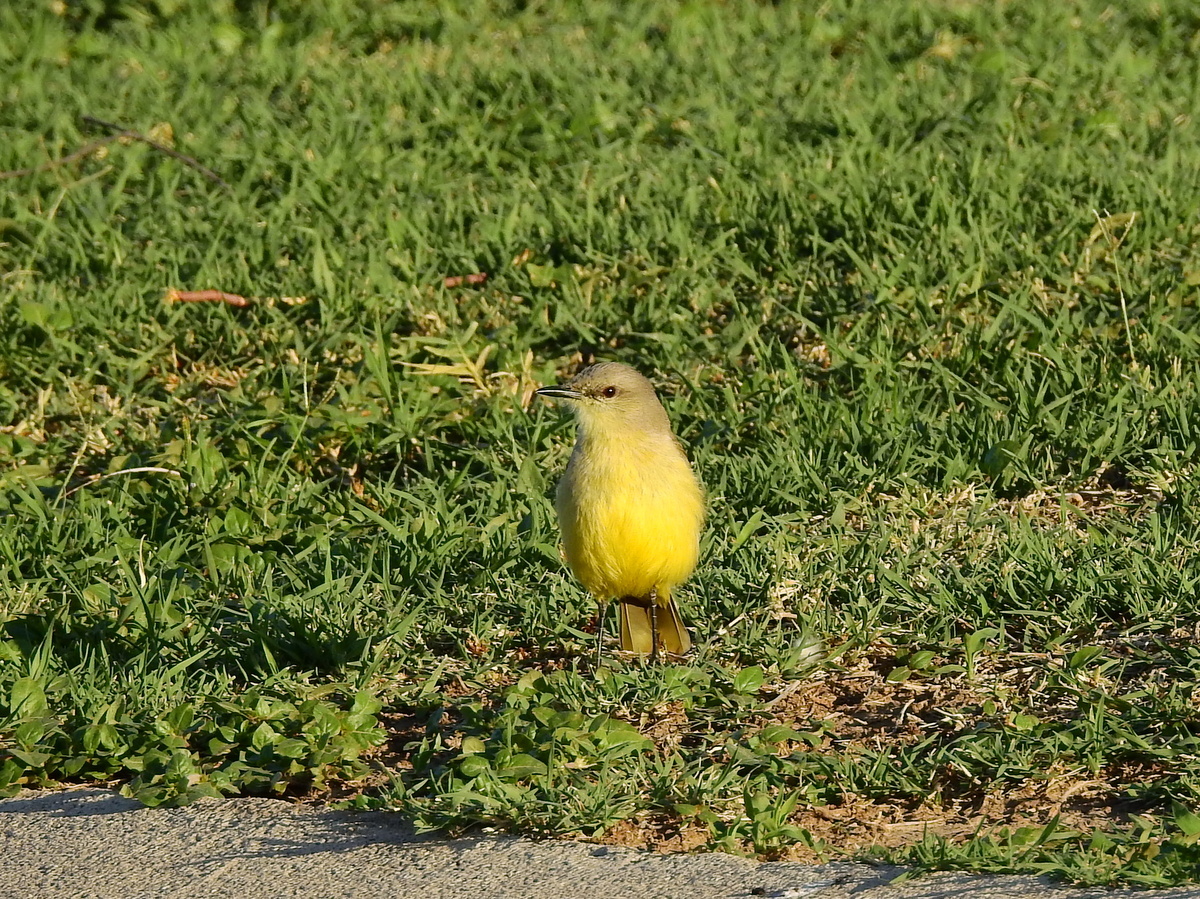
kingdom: Animalia
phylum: Chordata
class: Aves
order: Passeriformes
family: Tyrannidae
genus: Machetornis
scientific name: Machetornis rixosa
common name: Cattle tyrant
